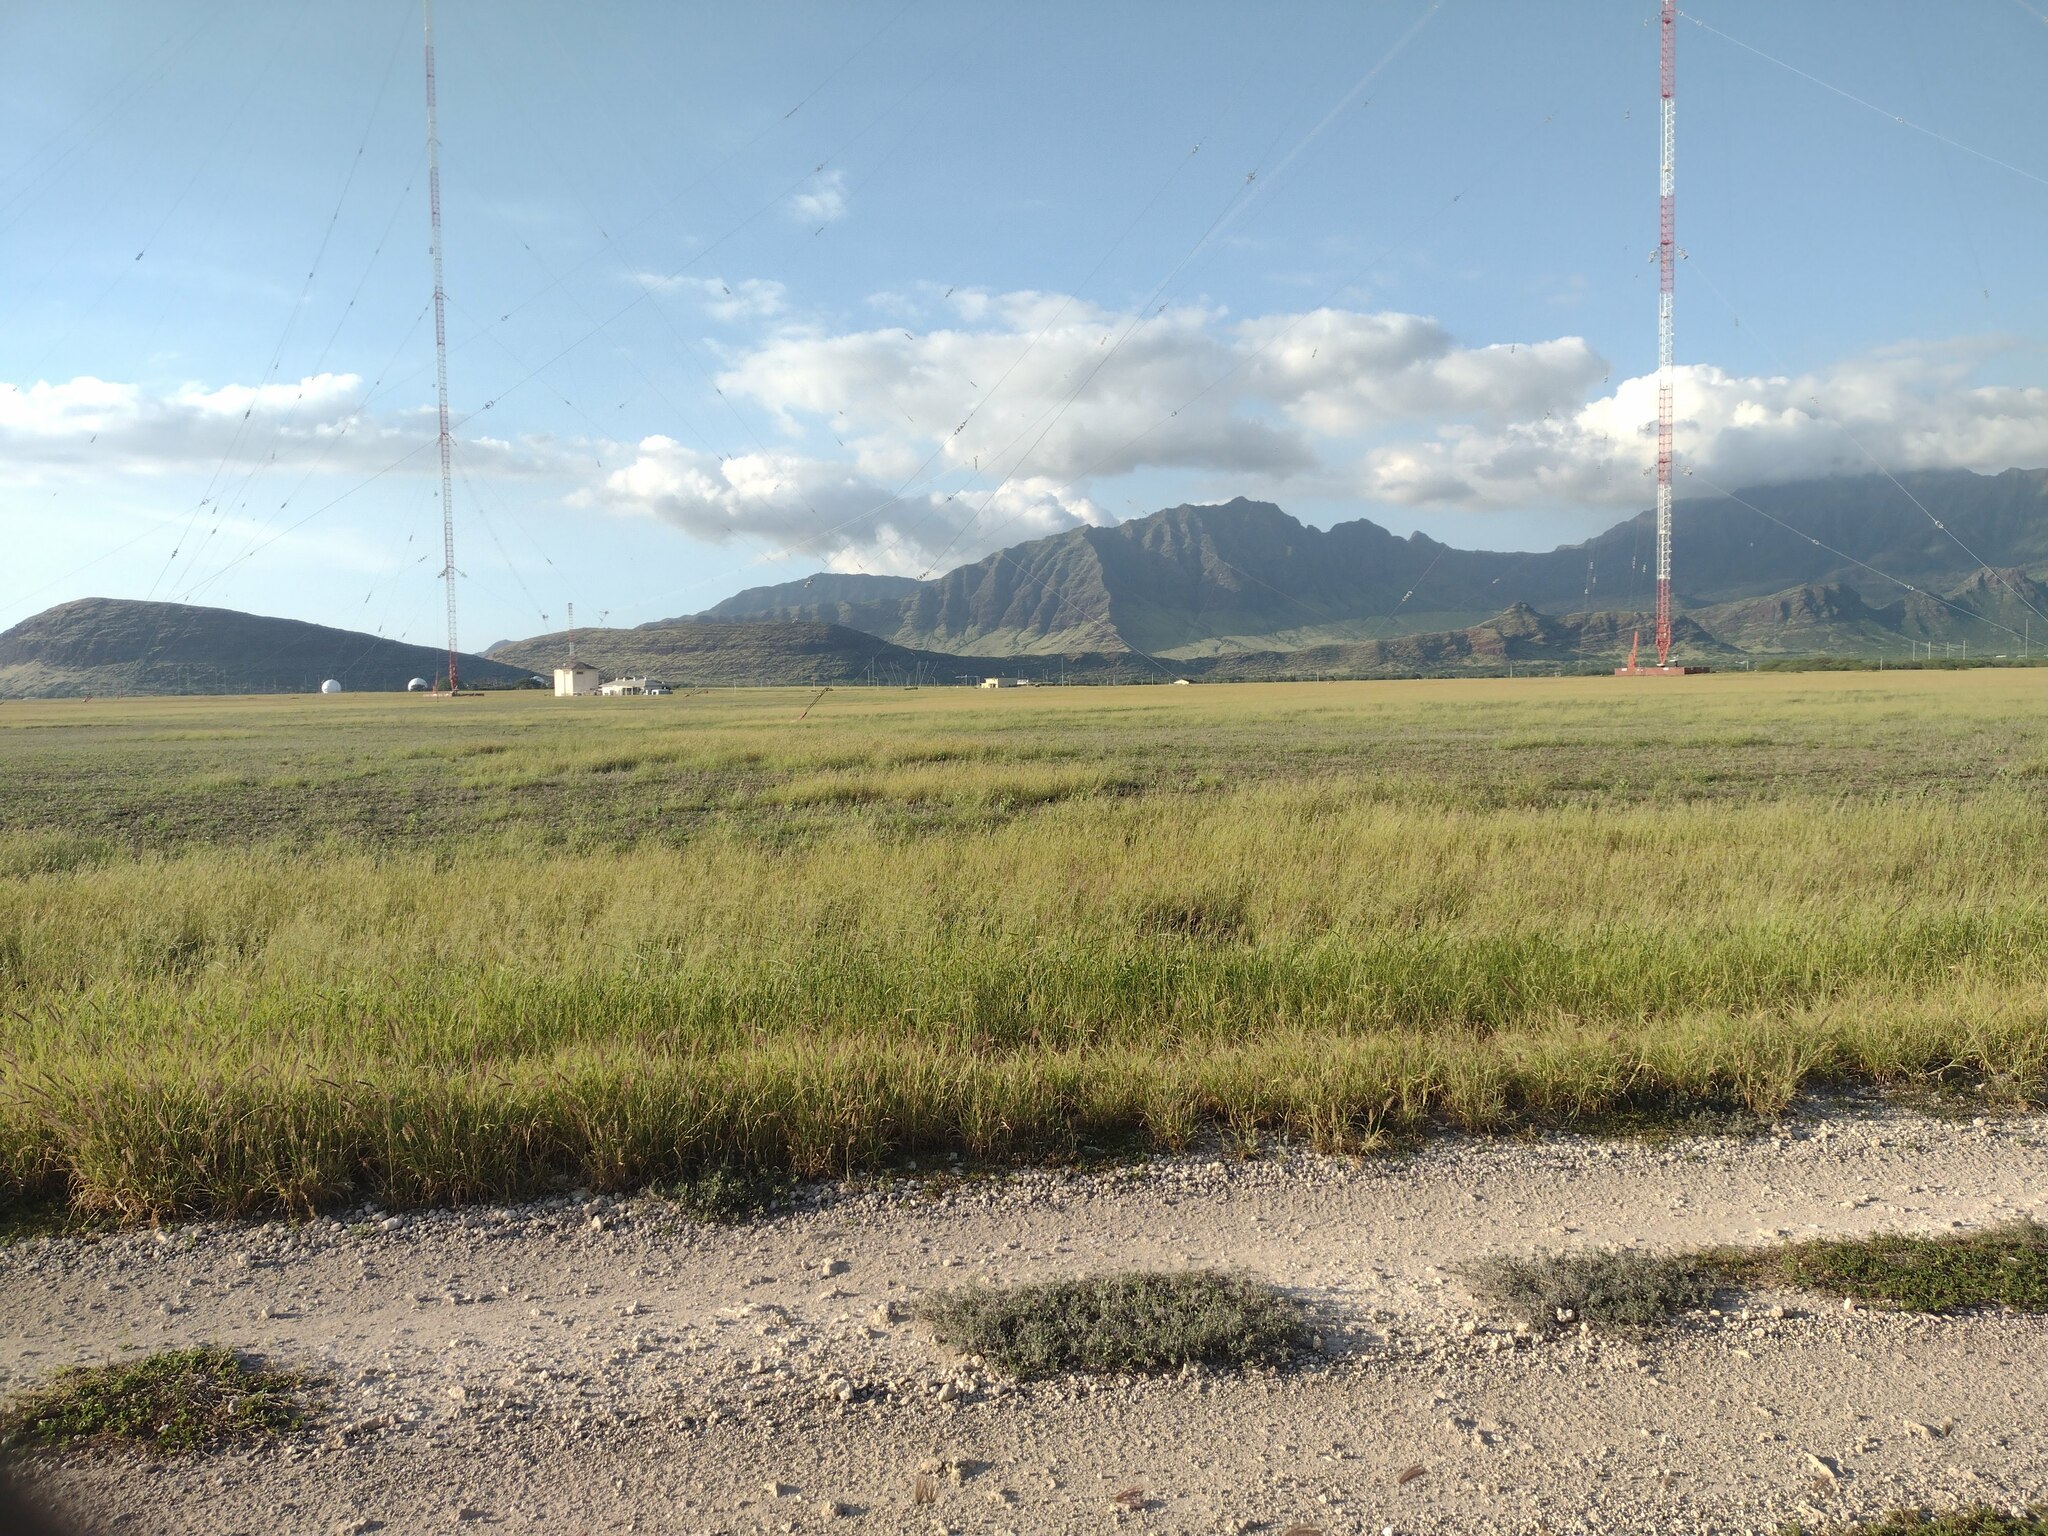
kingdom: Plantae
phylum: Tracheophyta
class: Liliopsida
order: Poales
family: Poaceae
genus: Cenchrus
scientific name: Cenchrus ciliaris
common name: Buffelgrass
